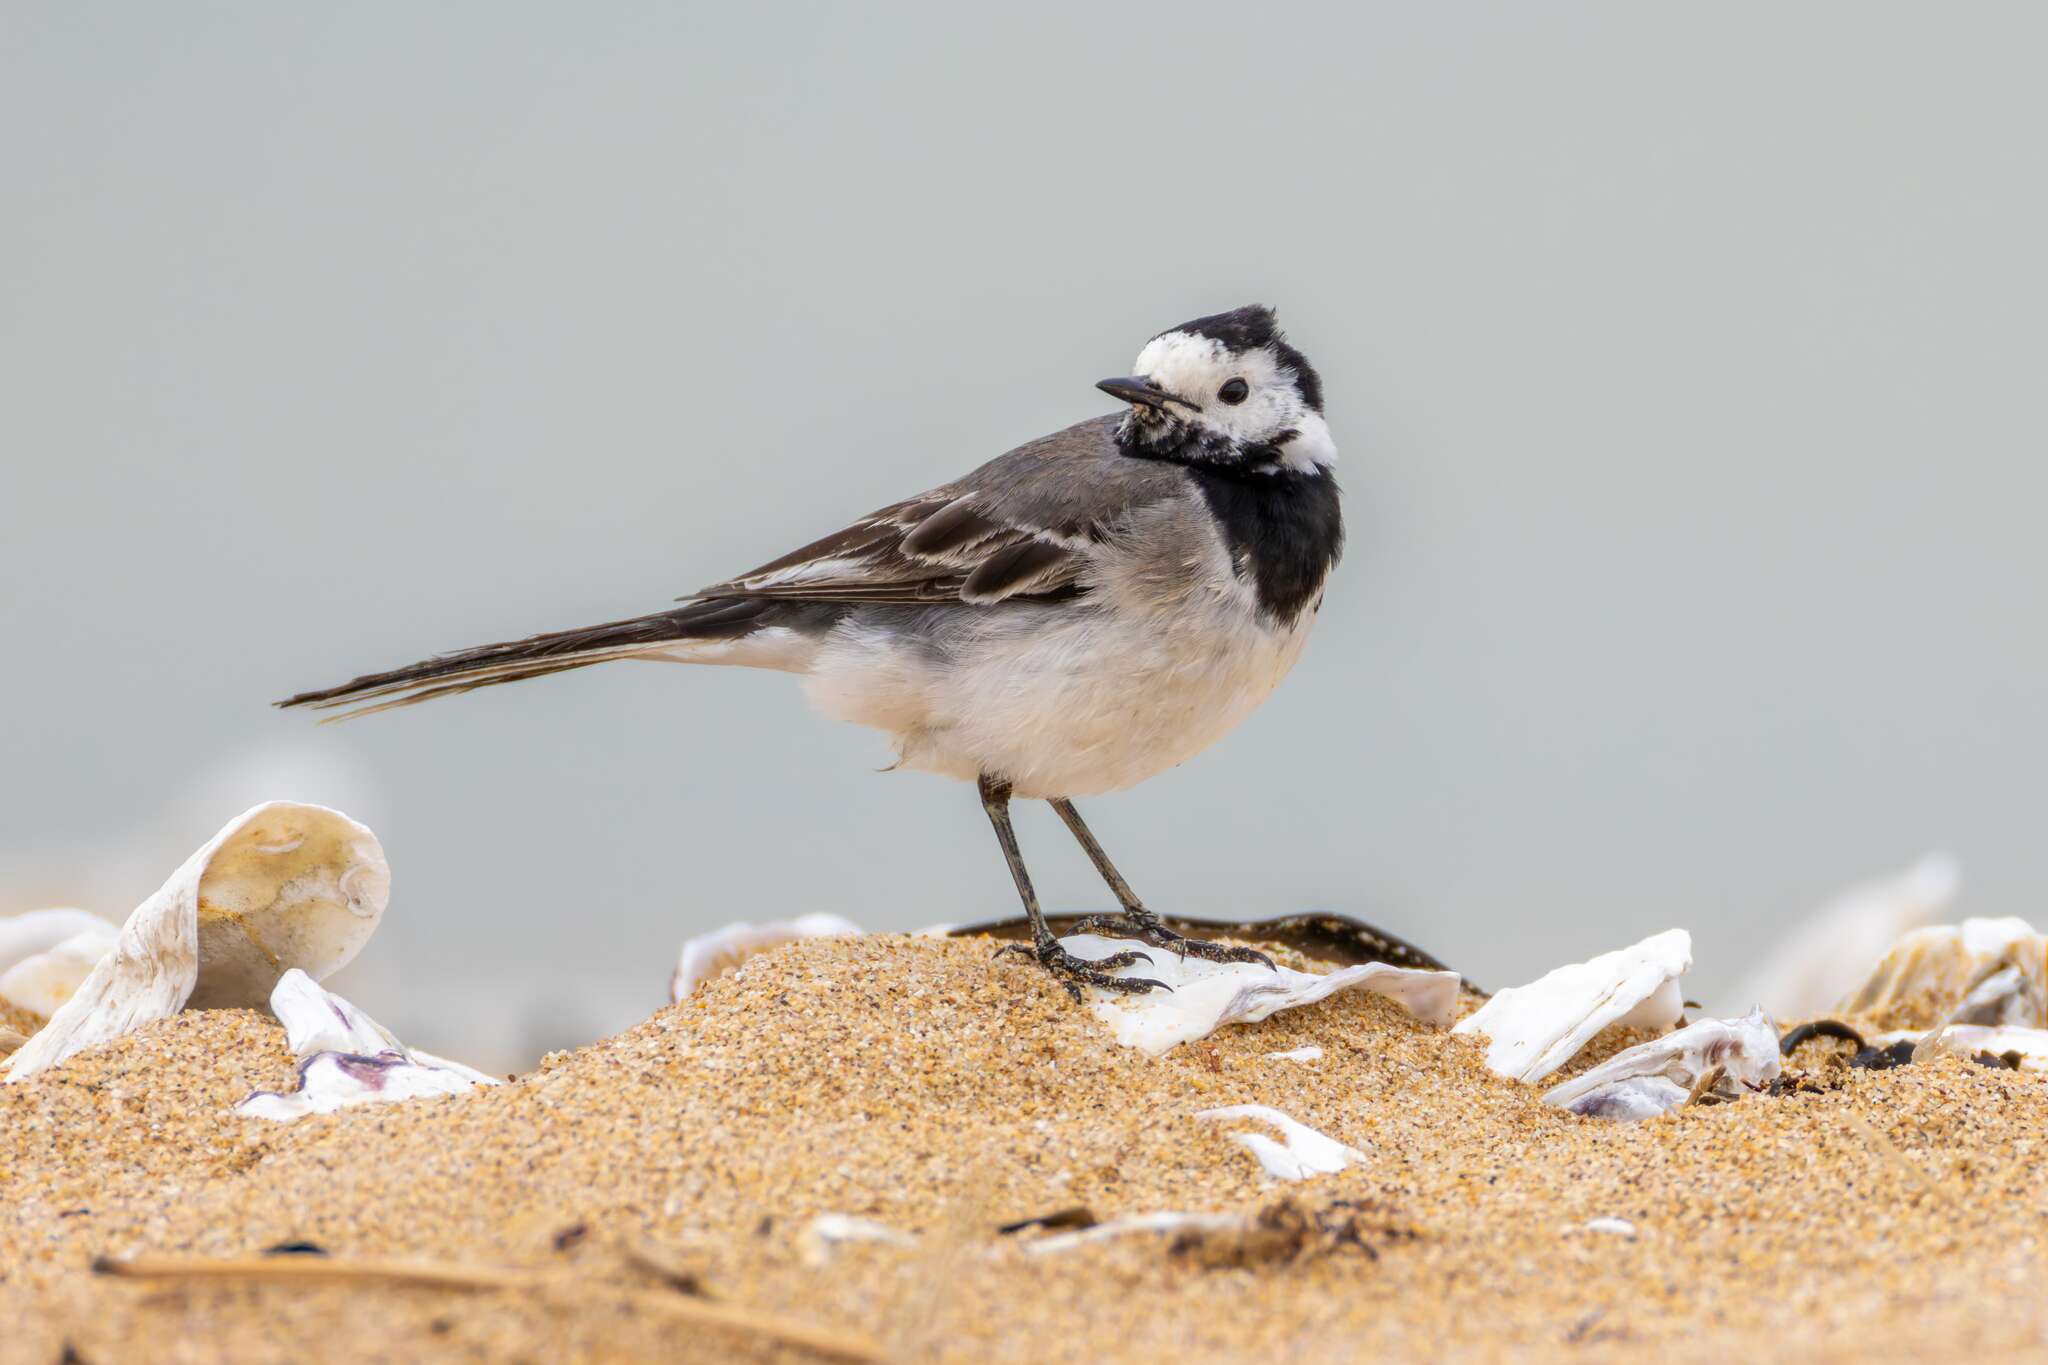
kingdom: Animalia
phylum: Chordata
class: Aves
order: Passeriformes
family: Motacillidae
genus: Motacilla
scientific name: Motacilla alba
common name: White wagtail
